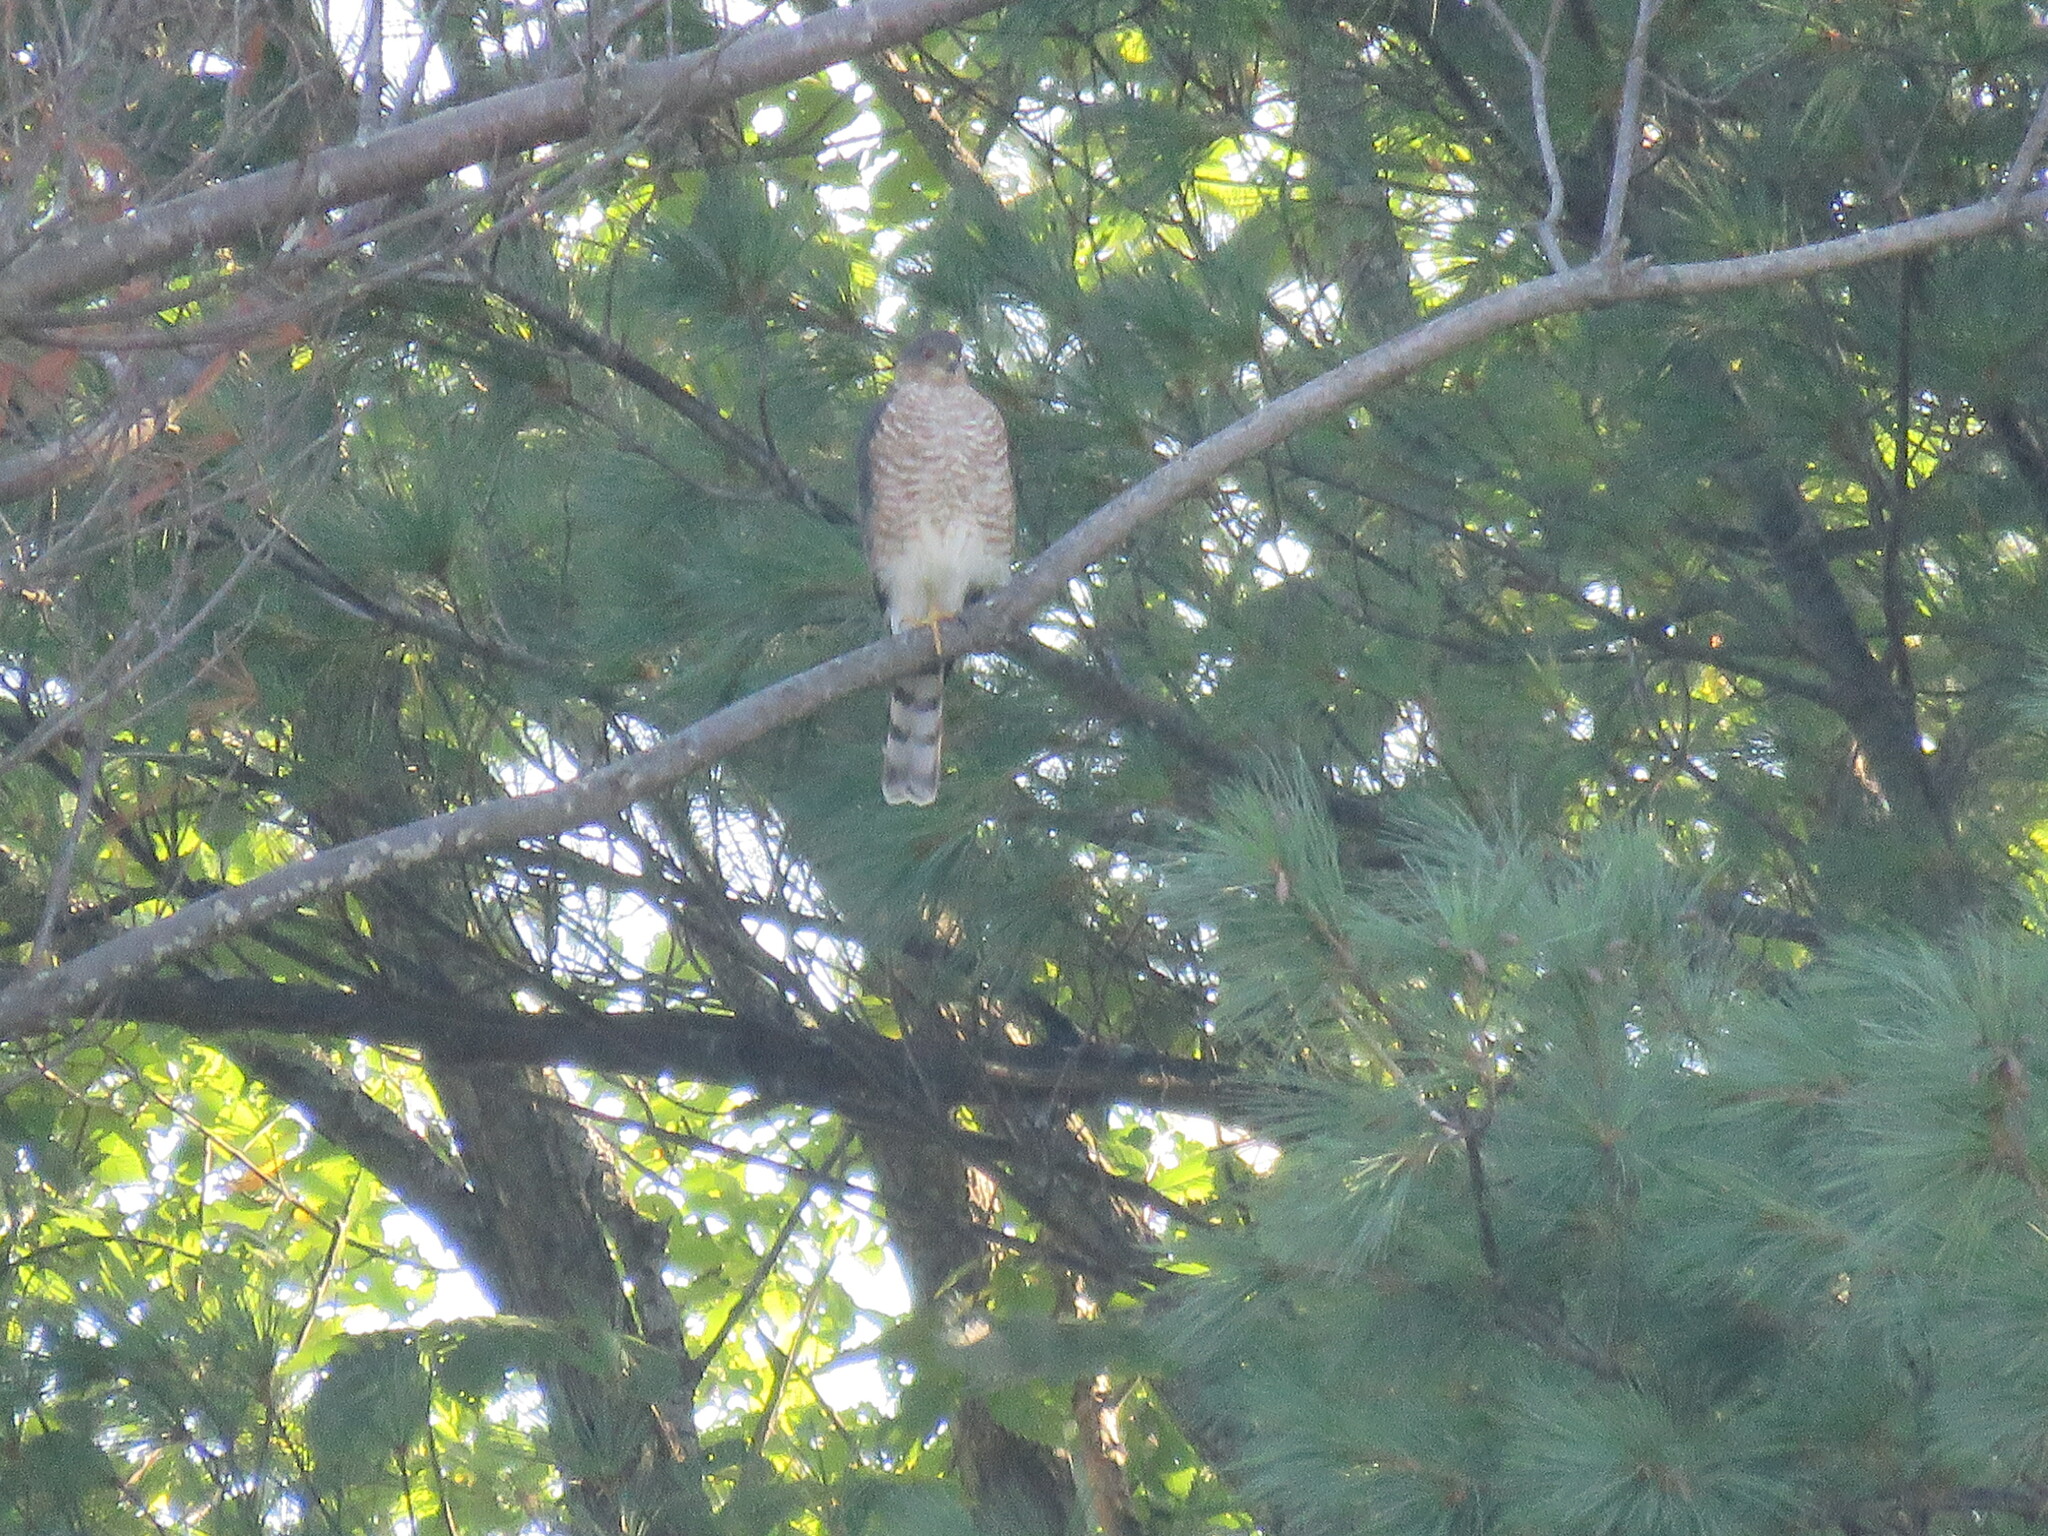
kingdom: Animalia
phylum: Chordata
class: Aves
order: Accipitriformes
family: Accipitridae
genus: Accipiter
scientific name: Accipiter cooperii
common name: Cooper's hawk
